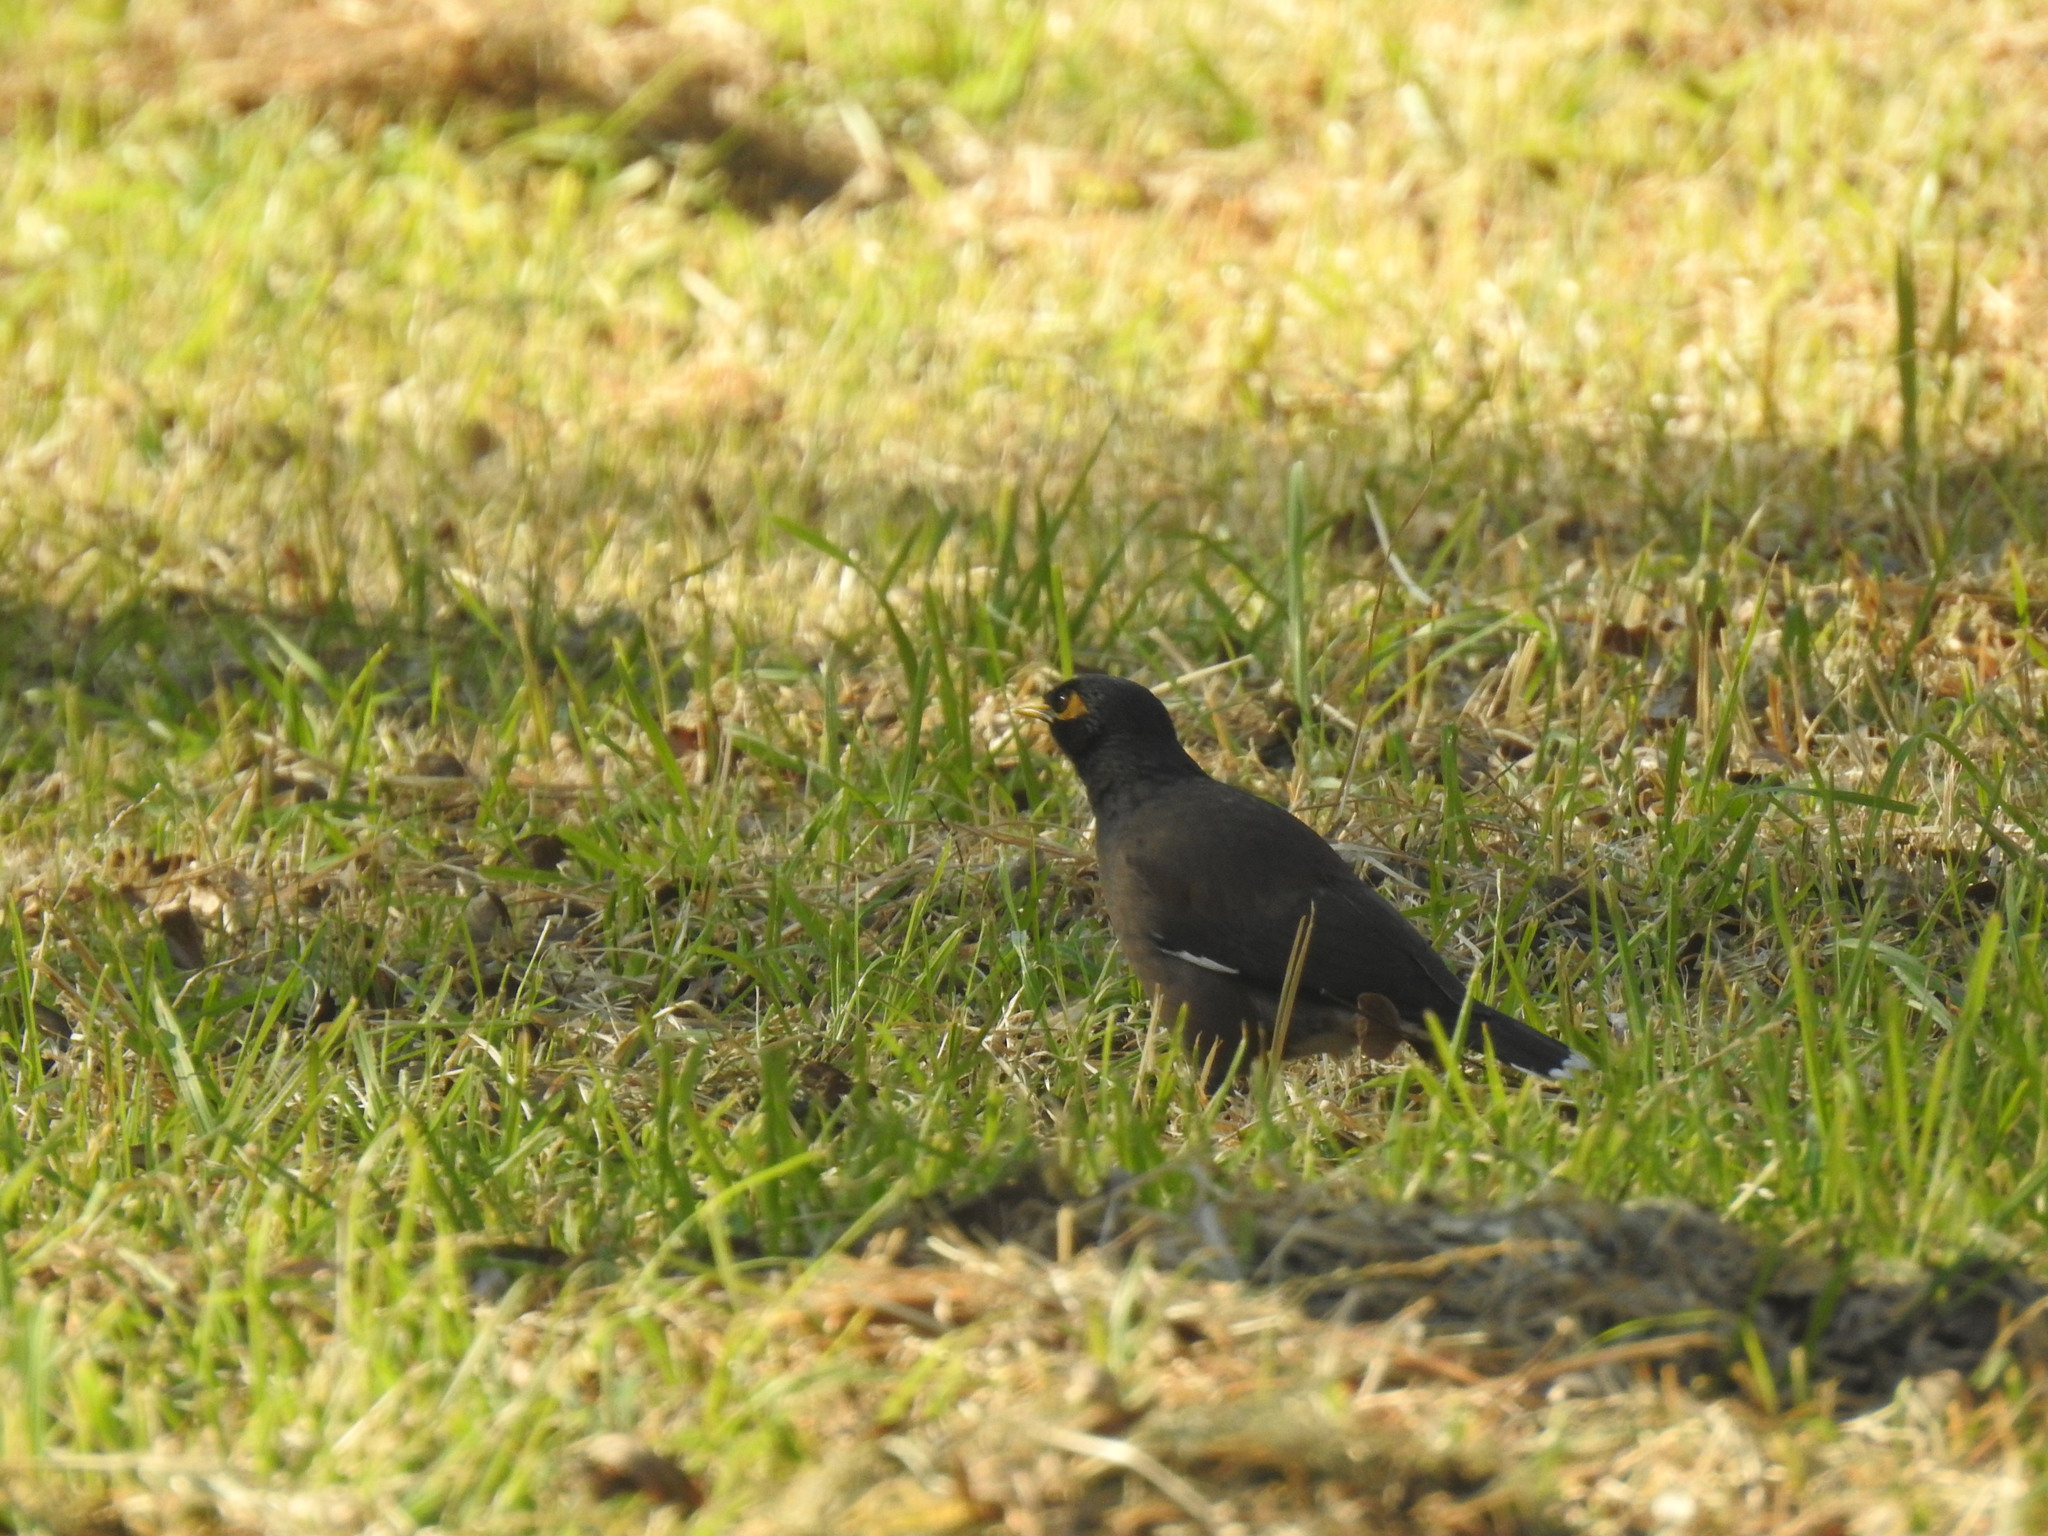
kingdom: Animalia
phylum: Chordata
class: Aves
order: Passeriformes
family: Sturnidae
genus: Acridotheres
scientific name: Acridotheres tristis
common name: Common myna
